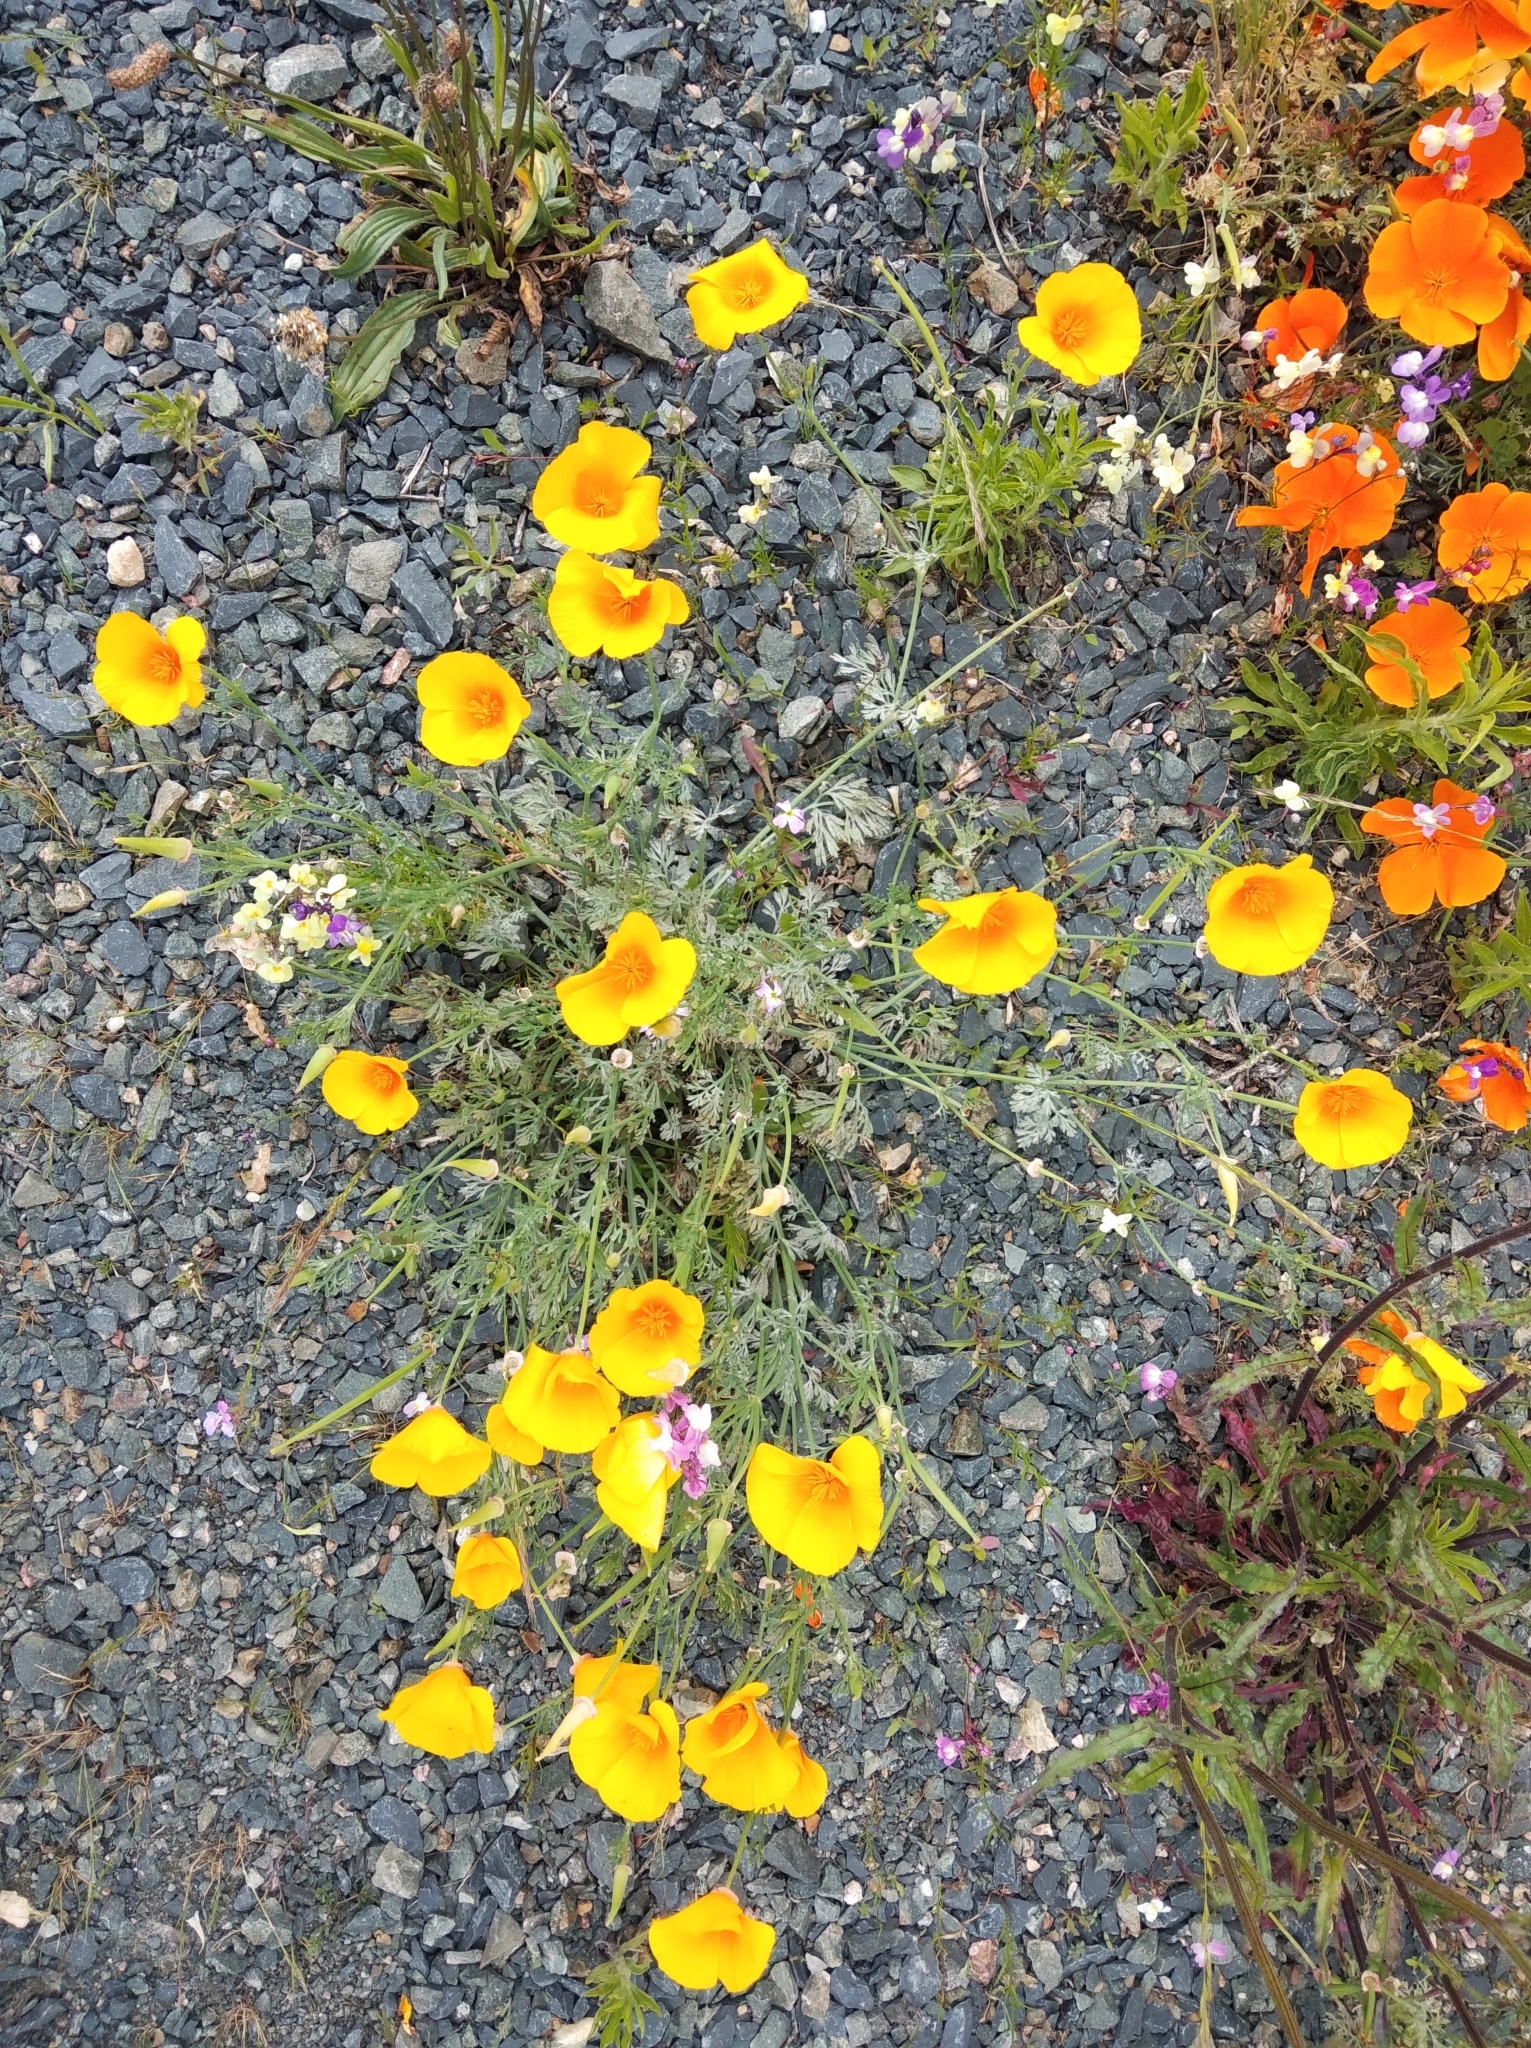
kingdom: Plantae
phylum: Tracheophyta
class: Magnoliopsida
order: Ranunculales
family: Papaveraceae
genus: Eschscholzia
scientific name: Eschscholzia californica
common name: California poppy
